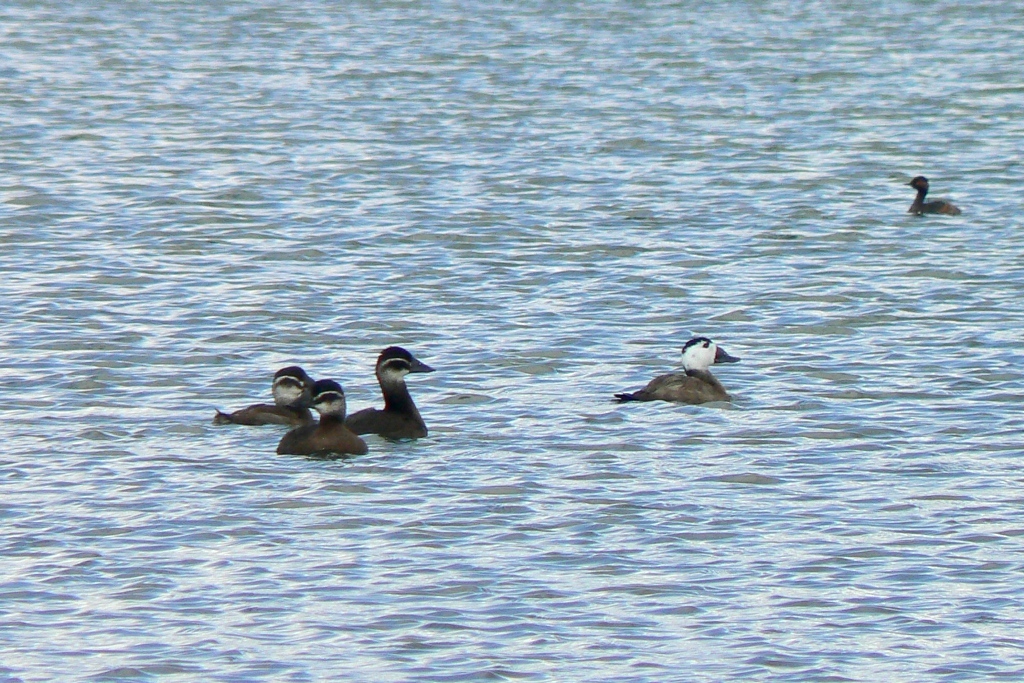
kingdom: Animalia
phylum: Chordata
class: Aves
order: Anseriformes
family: Anatidae
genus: Oxyura
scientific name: Oxyura leucocephala
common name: White-headed duck
